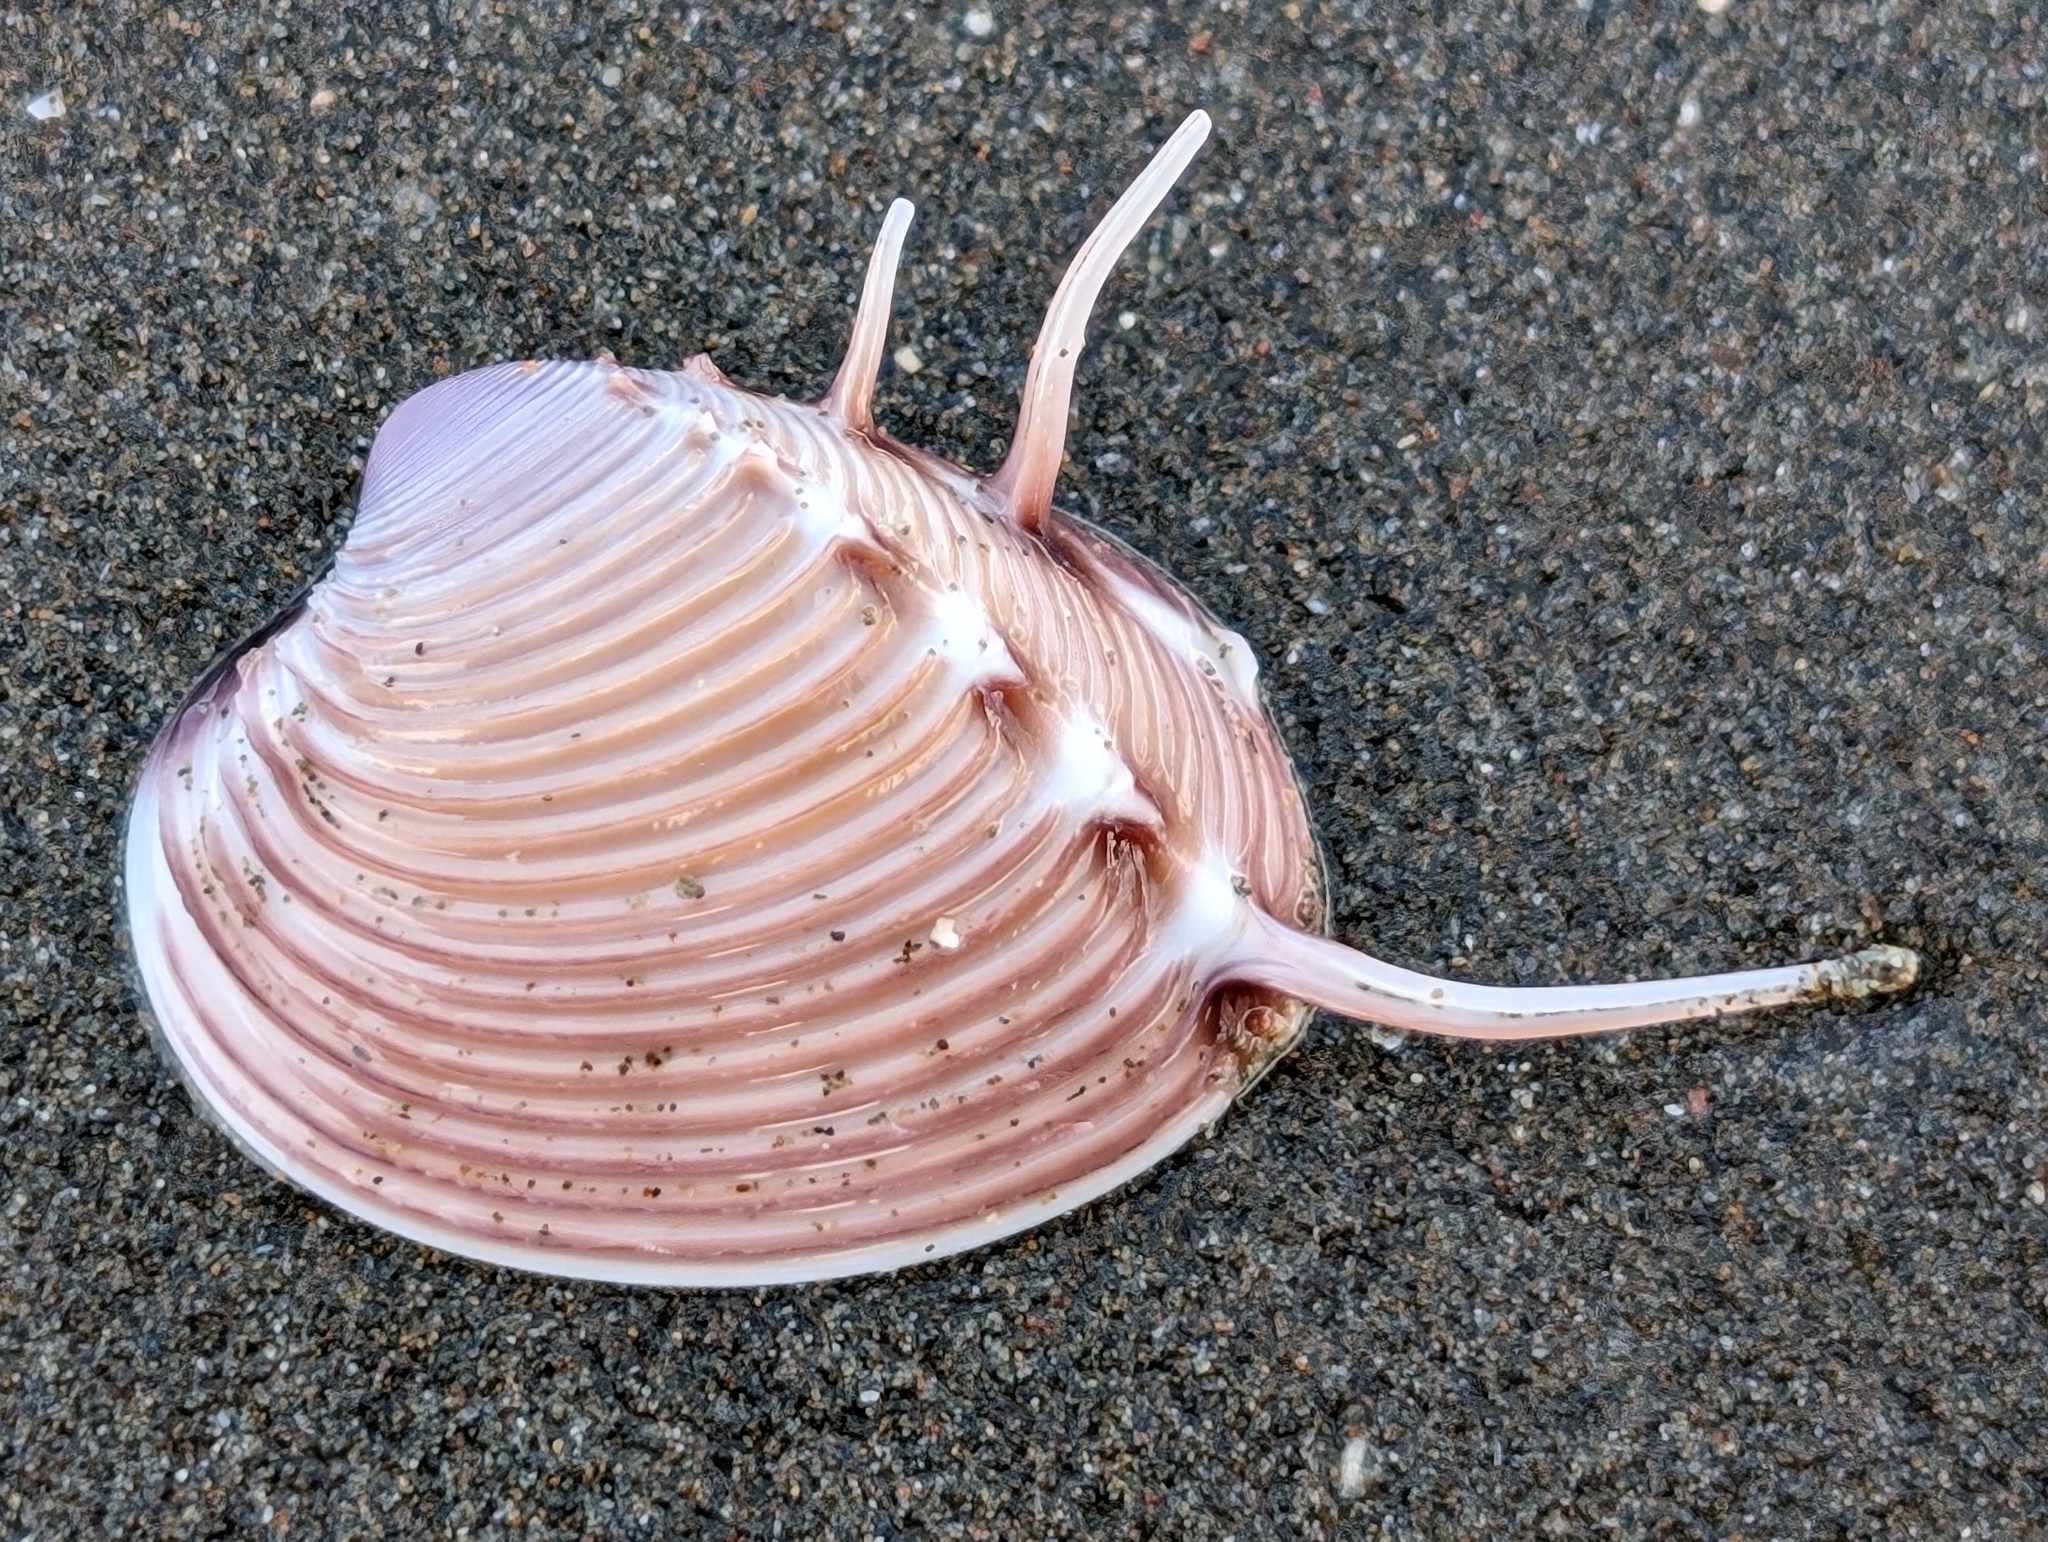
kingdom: Animalia
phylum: Mollusca
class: Bivalvia
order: Venerida
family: Veneridae
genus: Hysteroconcha
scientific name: Hysteroconcha lupanaria
